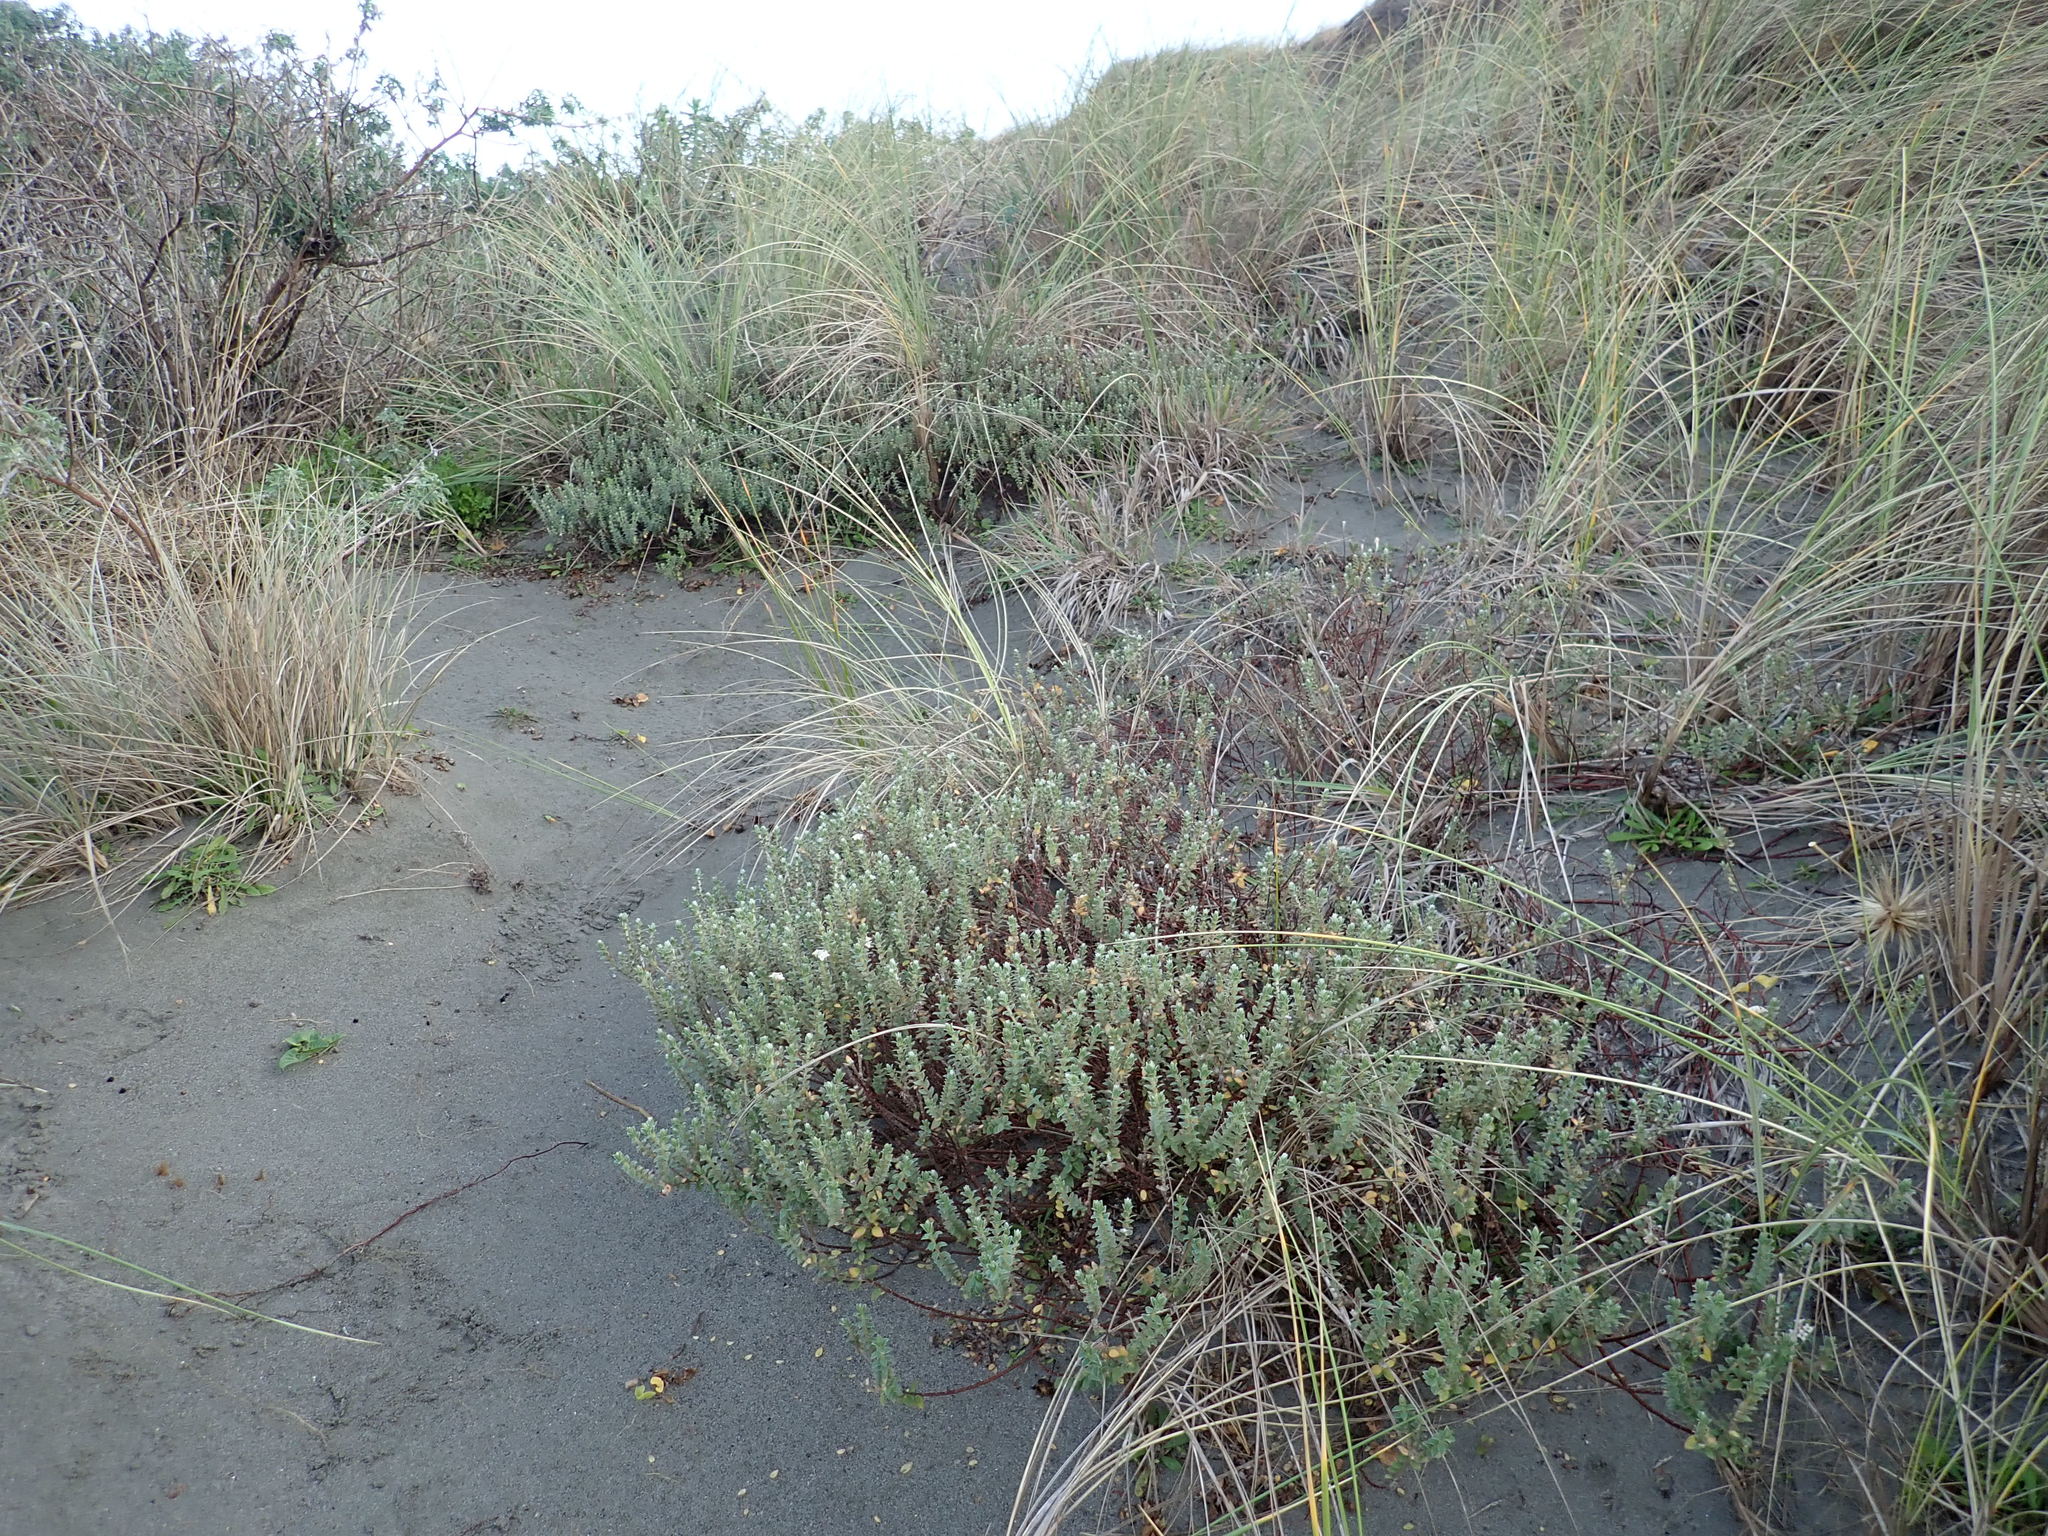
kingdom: Plantae
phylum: Tracheophyta
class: Magnoliopsida
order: Malvales
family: Thymelaeaceae
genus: Pimelea
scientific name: Pimelea villosa
